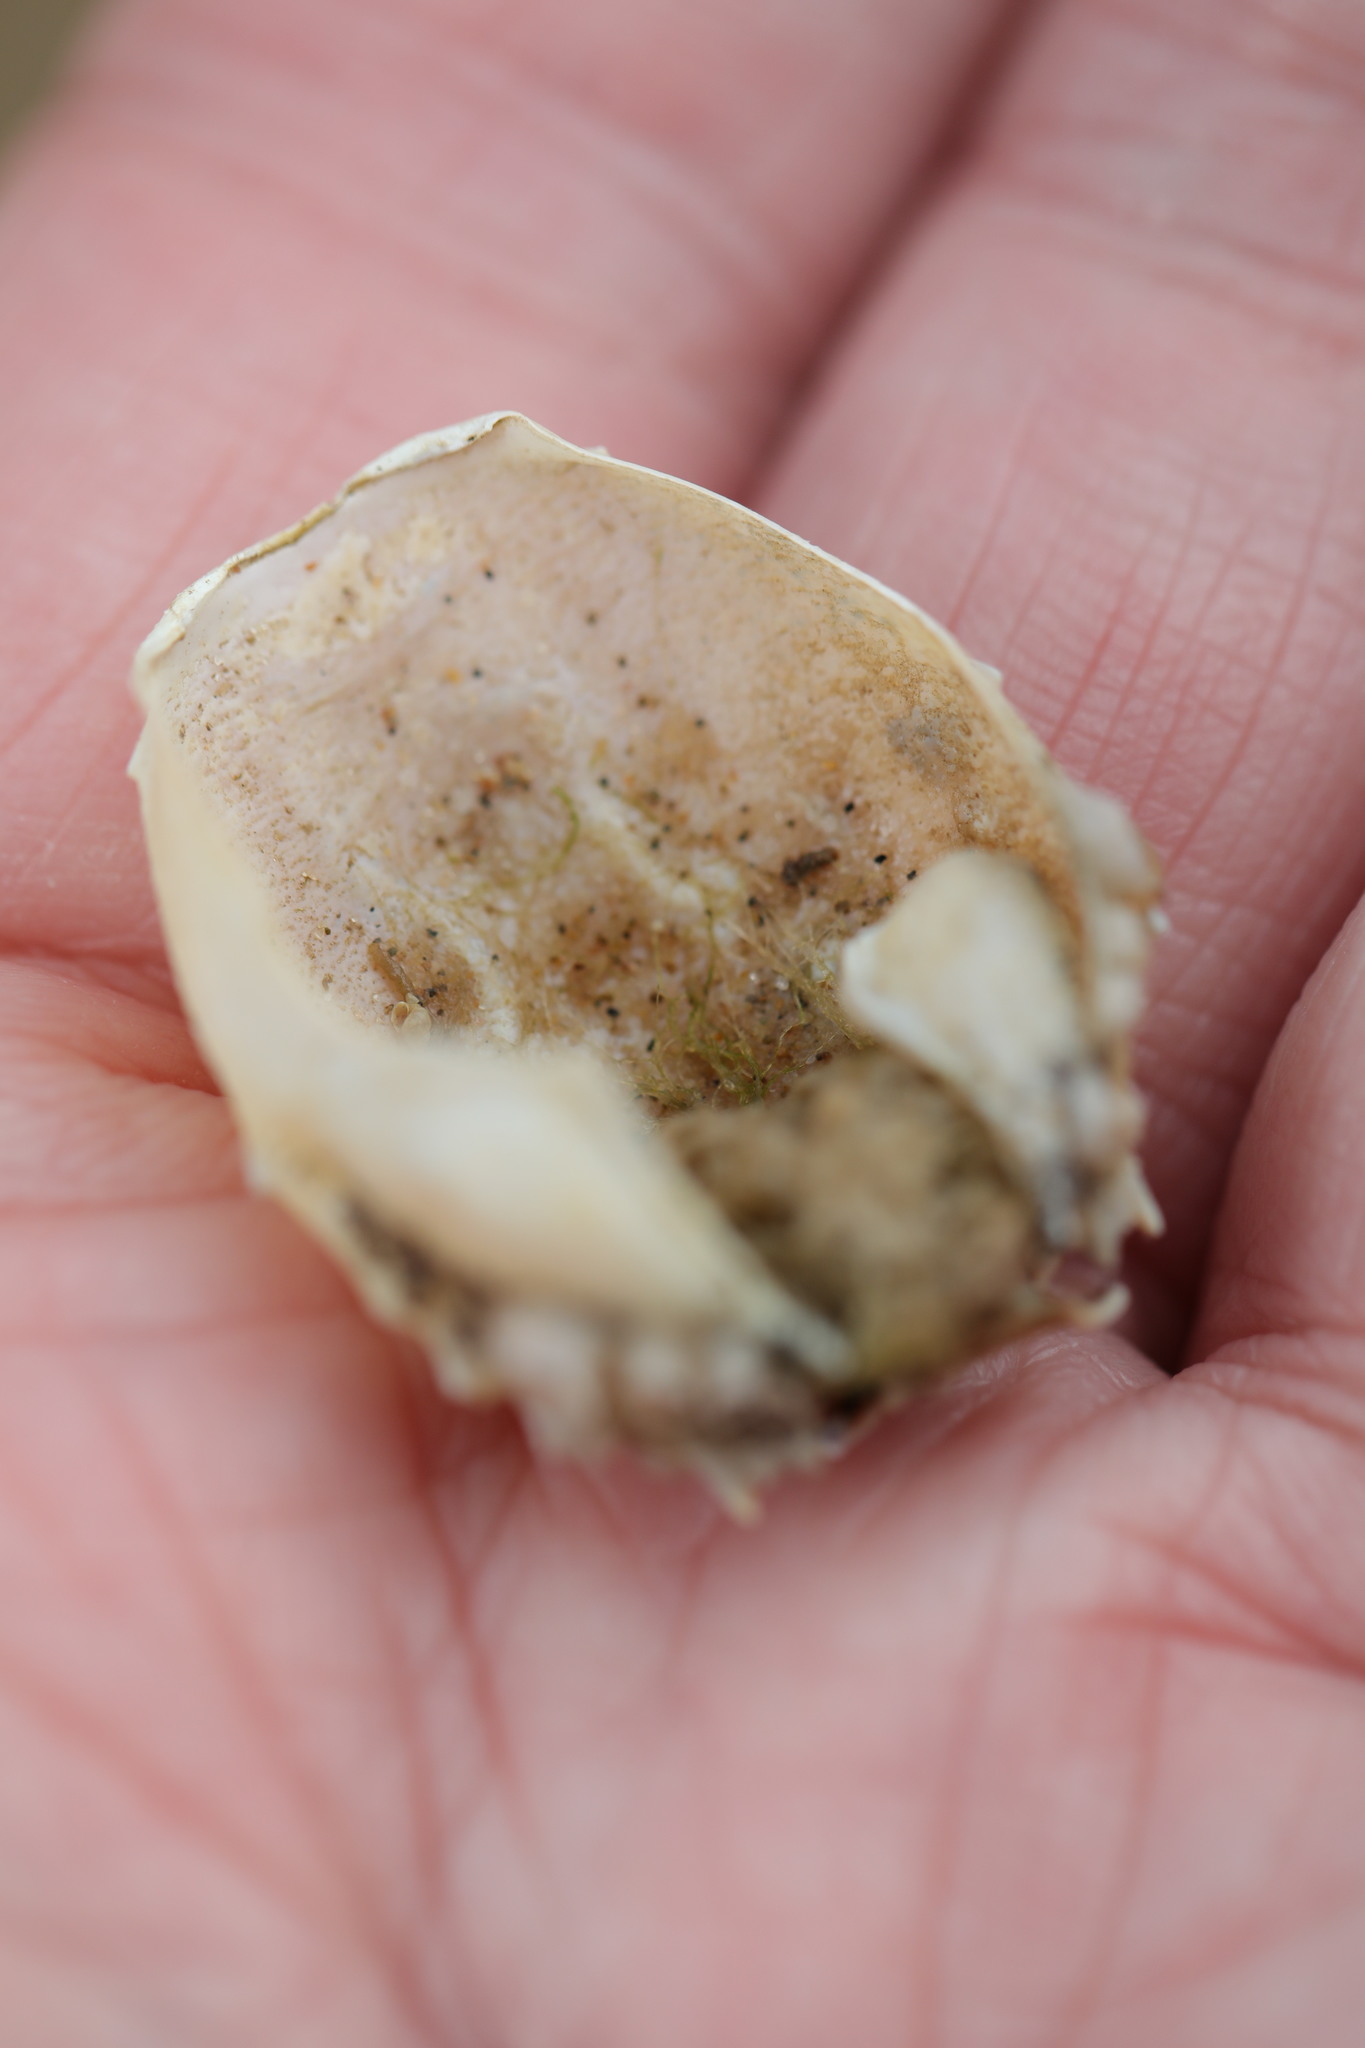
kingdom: Animalia
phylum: Arthropoda
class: Malacostraca
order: Decapoda
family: Corystidae
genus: Corystes
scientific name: Corystes cassivelaunus
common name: Masked crab
